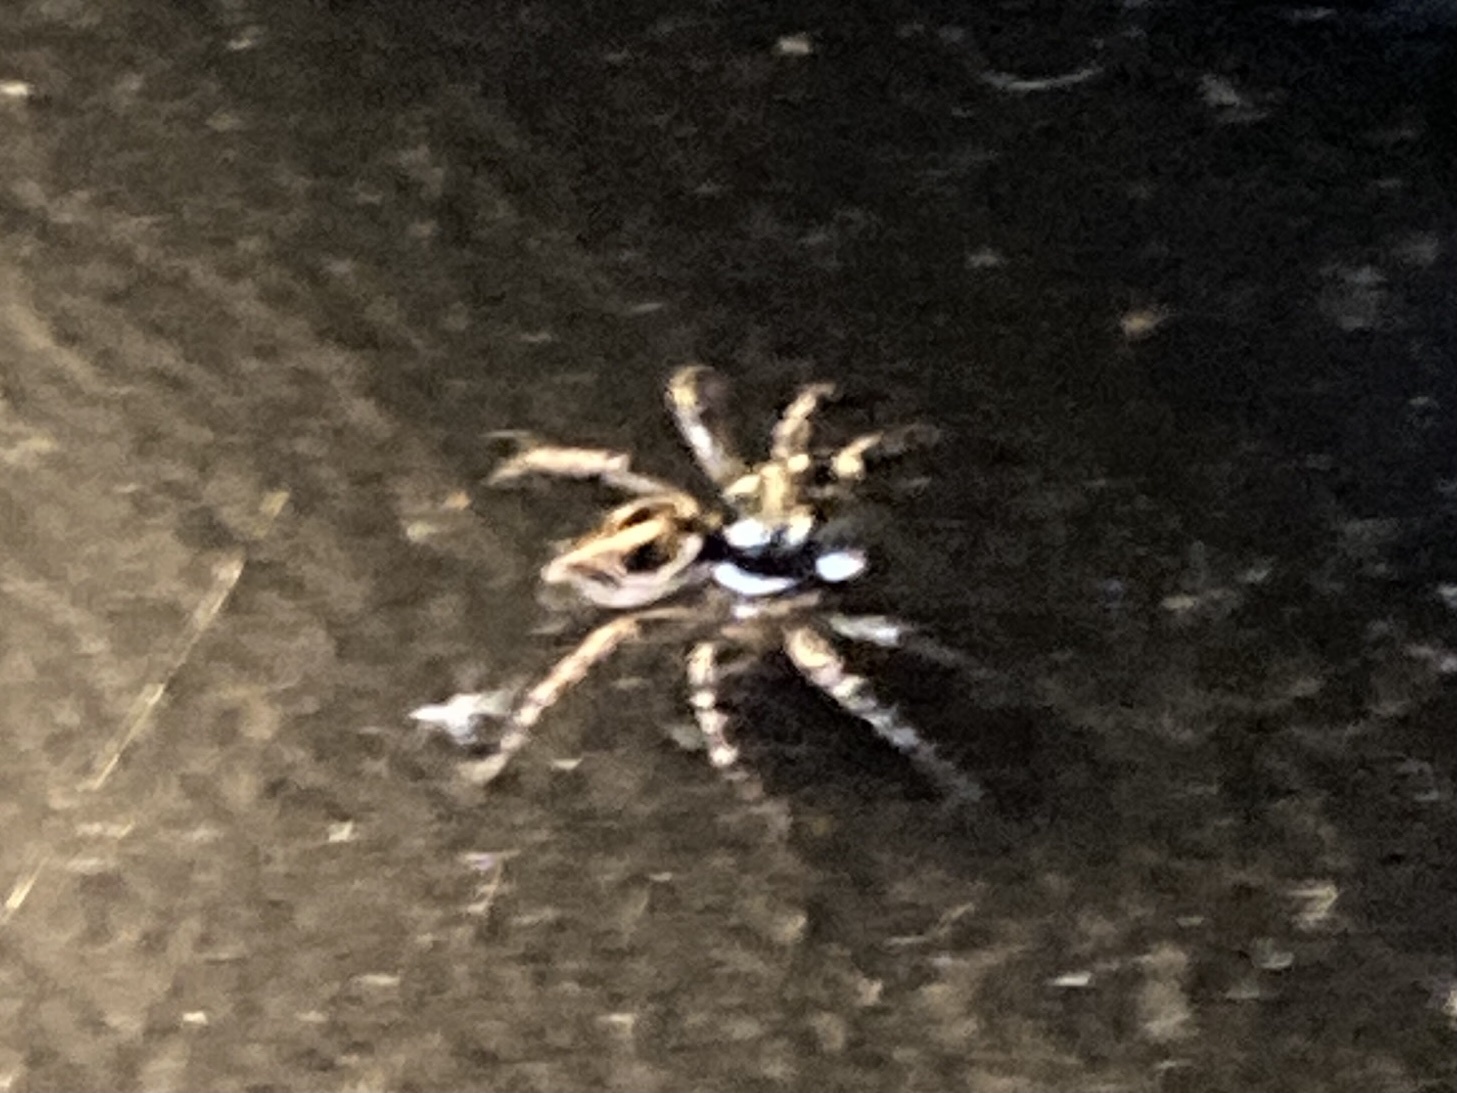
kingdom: Animalia
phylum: Arthropoda
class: Arachnida
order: Araneae
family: Salticidae
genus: Anasaitis
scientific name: Anasaitis canosa
